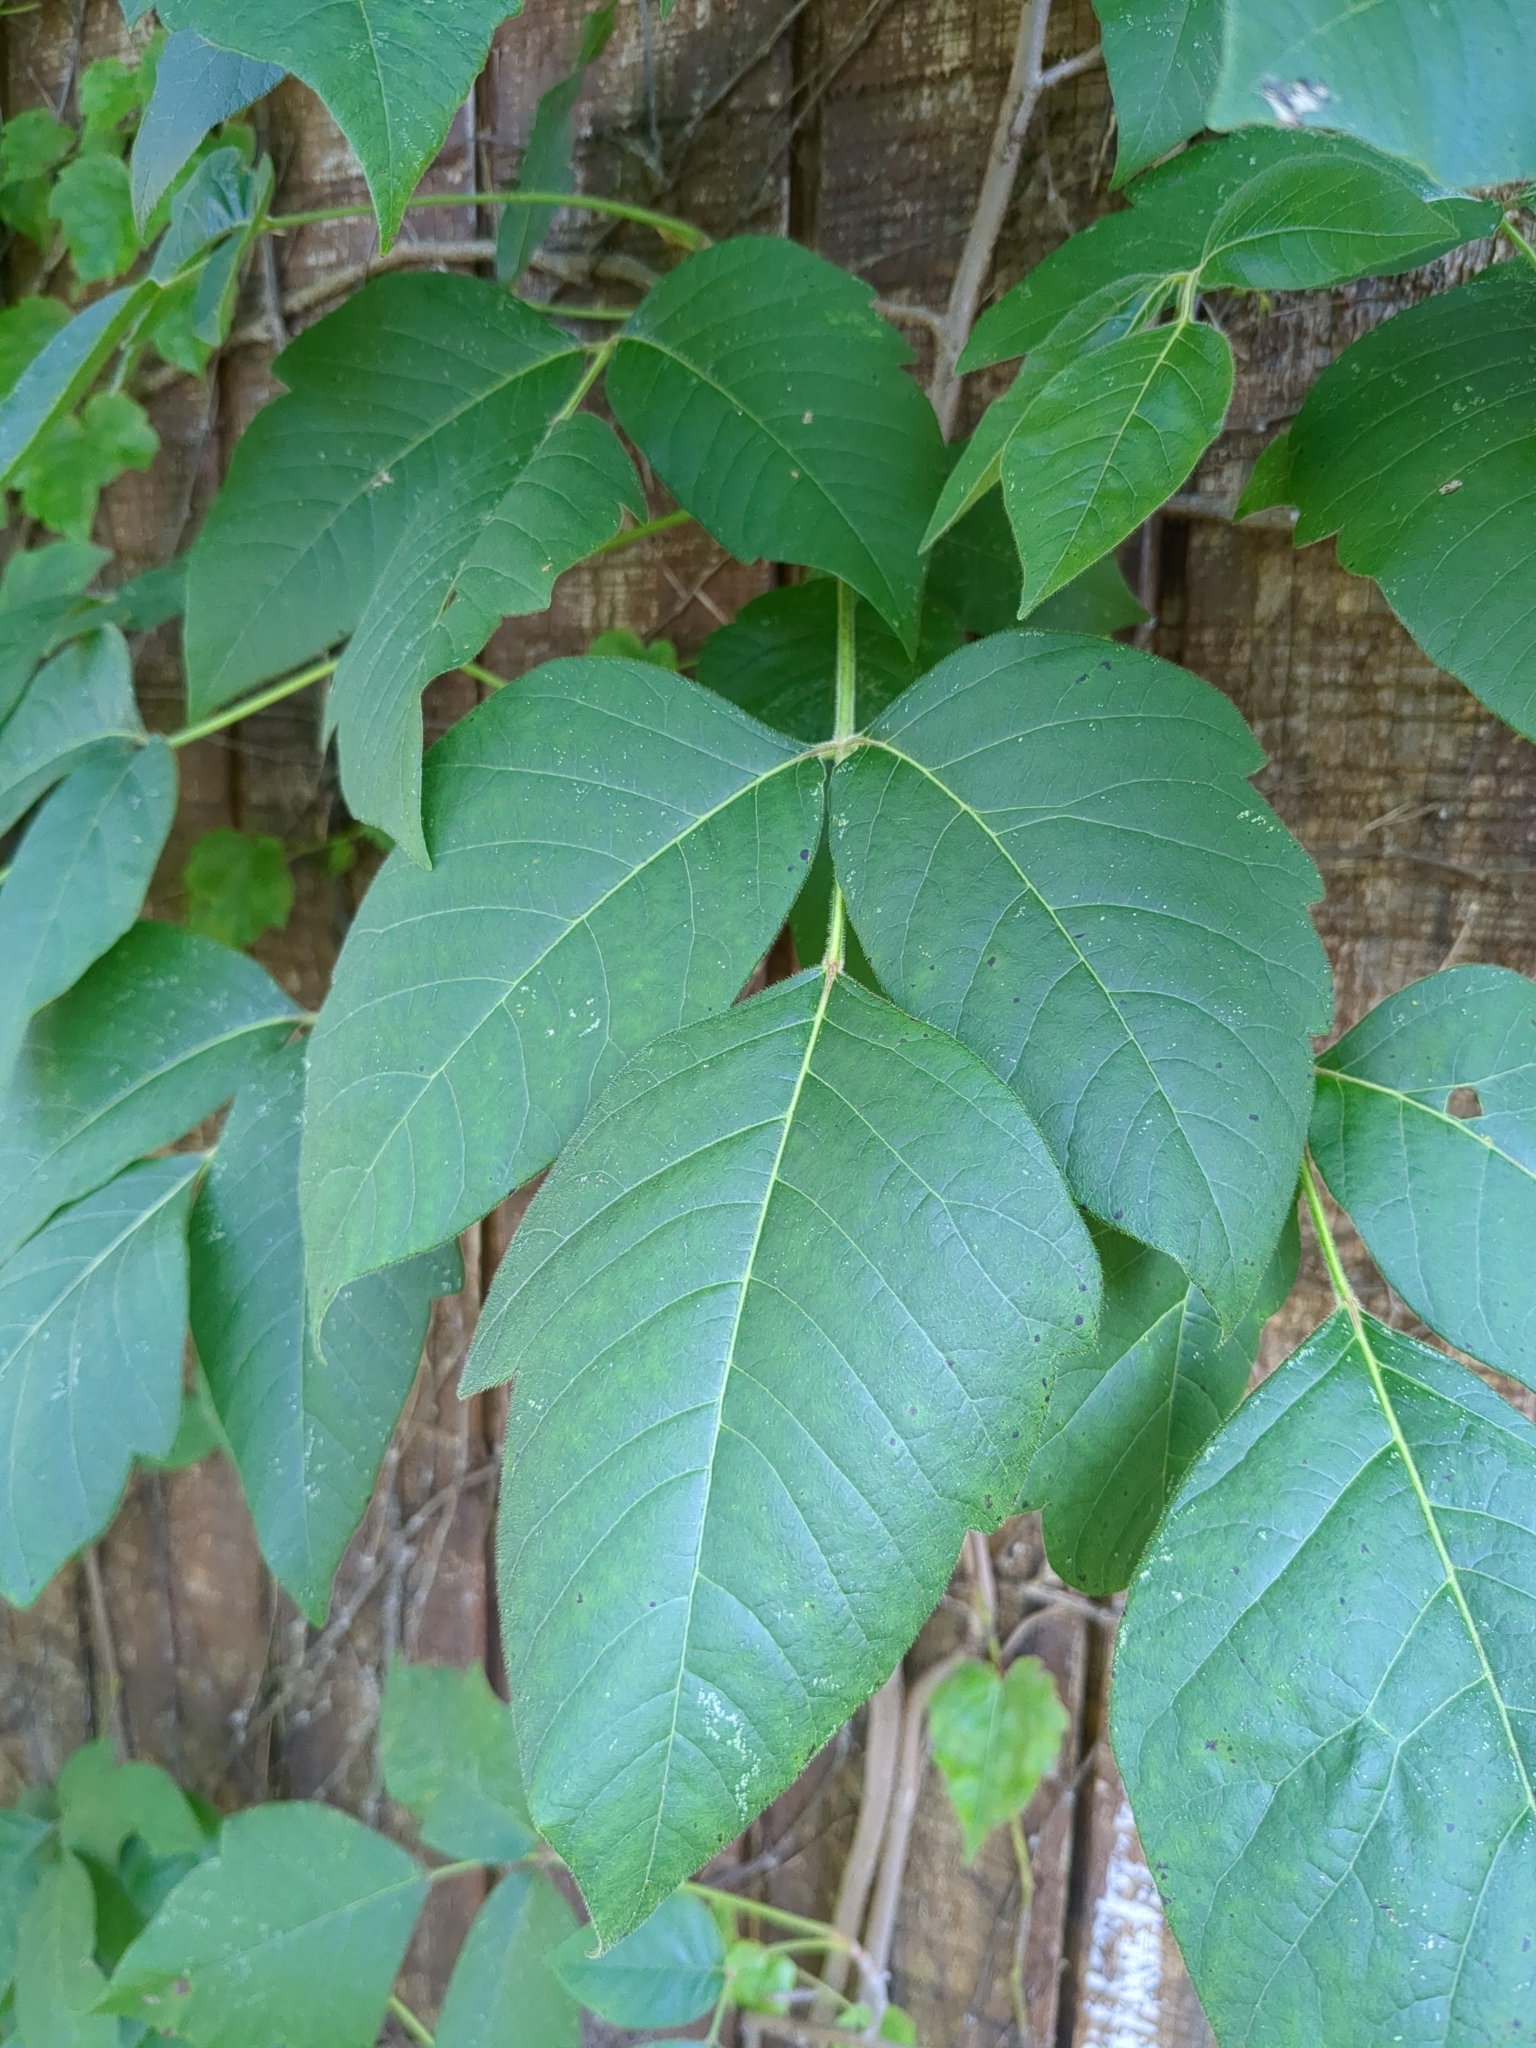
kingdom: Plantae
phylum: Tracheophyta
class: Magnoliopsida
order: Sapindales
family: Anacardiaceae
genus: Toxicodendron
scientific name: Toxicodendron radicans
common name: Poison ivy
